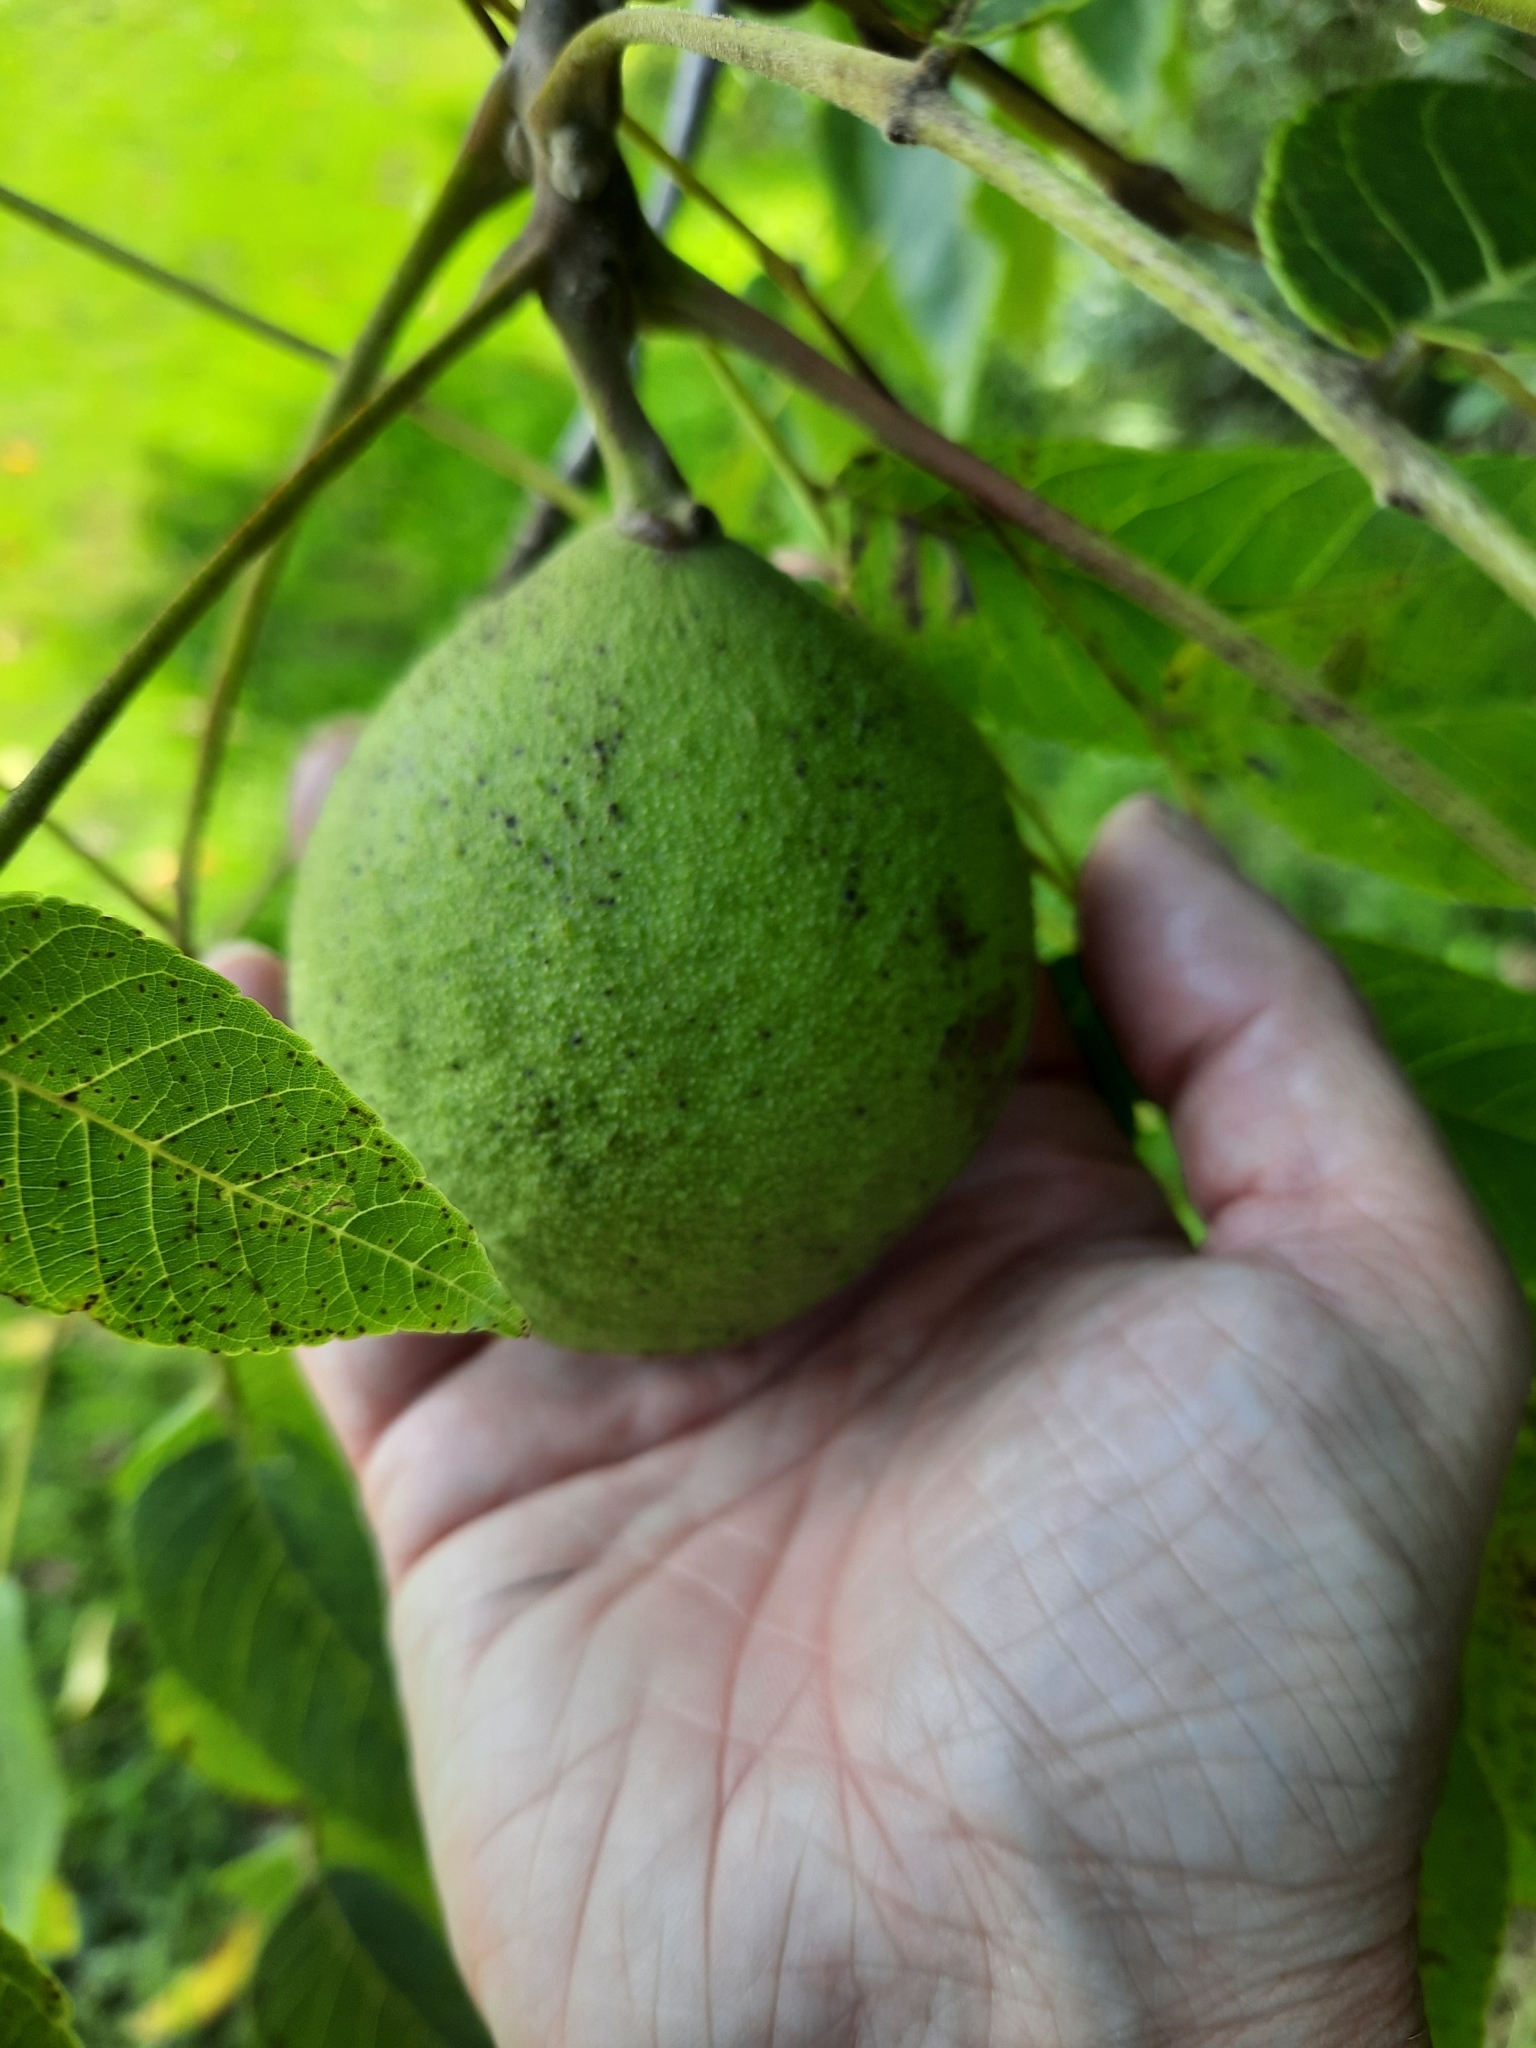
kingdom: Plantae
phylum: Tracheophyta
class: Magnoliopsida
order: Fagales
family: Juglandaceae
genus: Juglans
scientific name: Juglans nigra
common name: Black walnut
